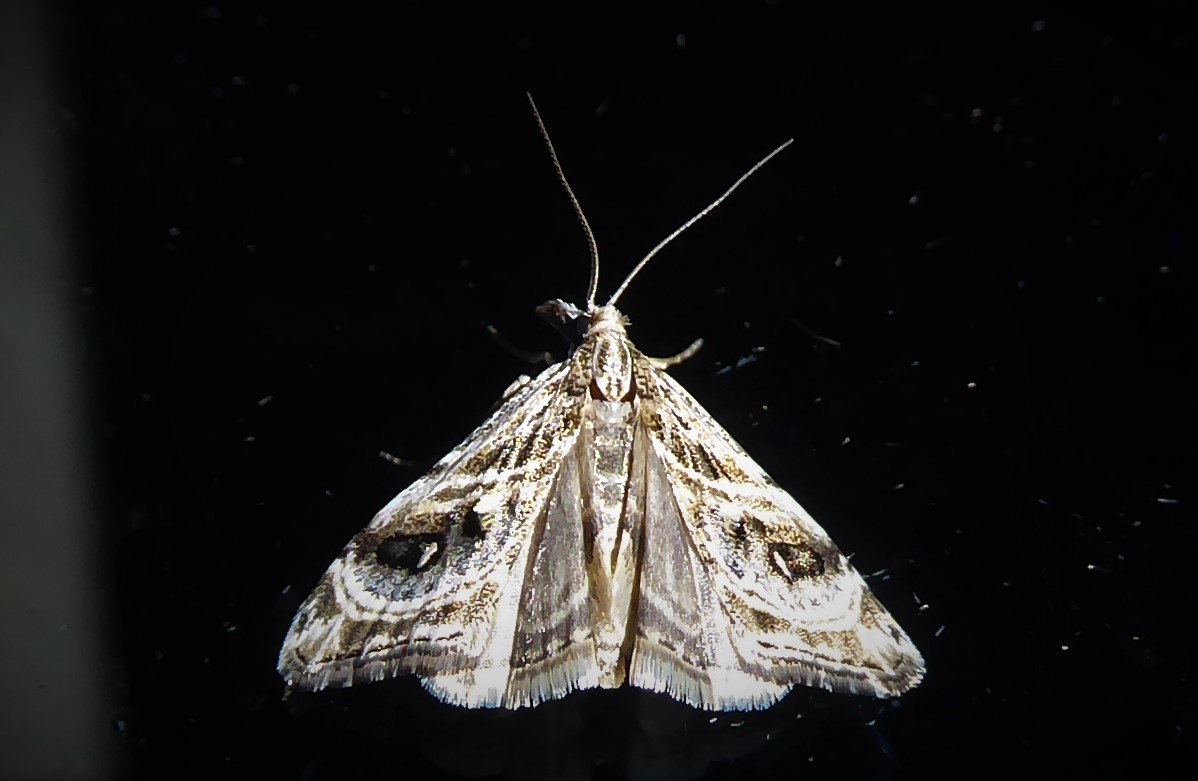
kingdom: Animalia
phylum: Arthropoda
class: Insecta
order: Lepidoptera
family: Crambidae
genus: Gadira
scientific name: Gadira acerella
